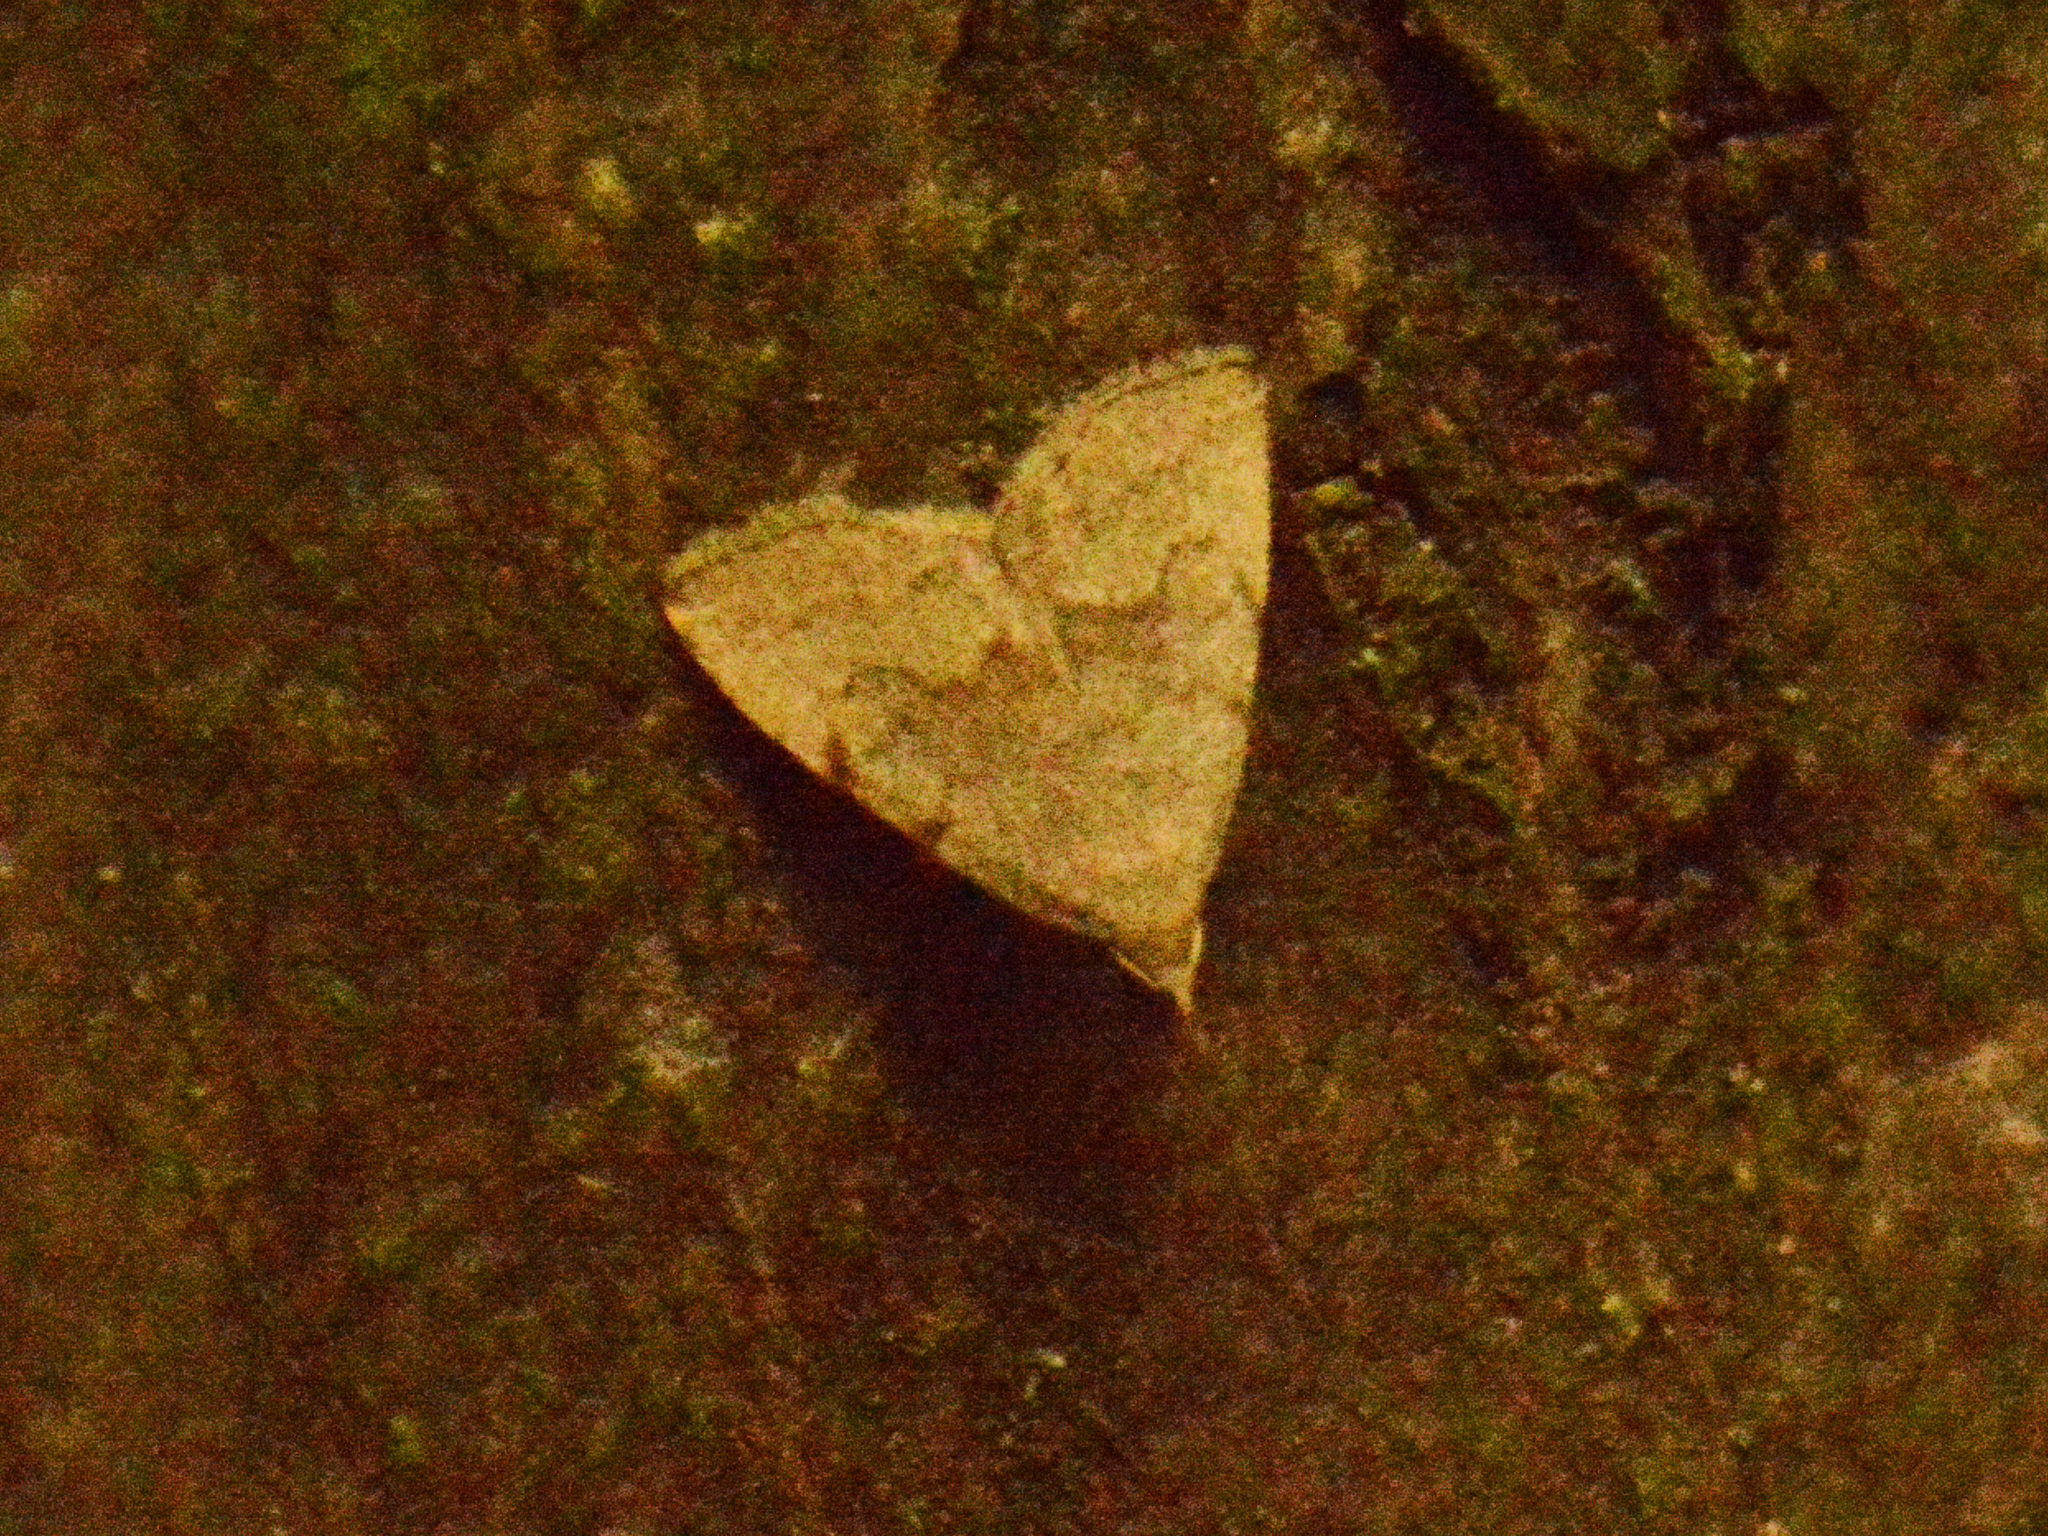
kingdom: Animalia
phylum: Arthropoda
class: Insecta
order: Lepidoptera
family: Erebidae
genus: Pechipogo
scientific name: Pechipogo strigilata
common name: Common fan-foot
